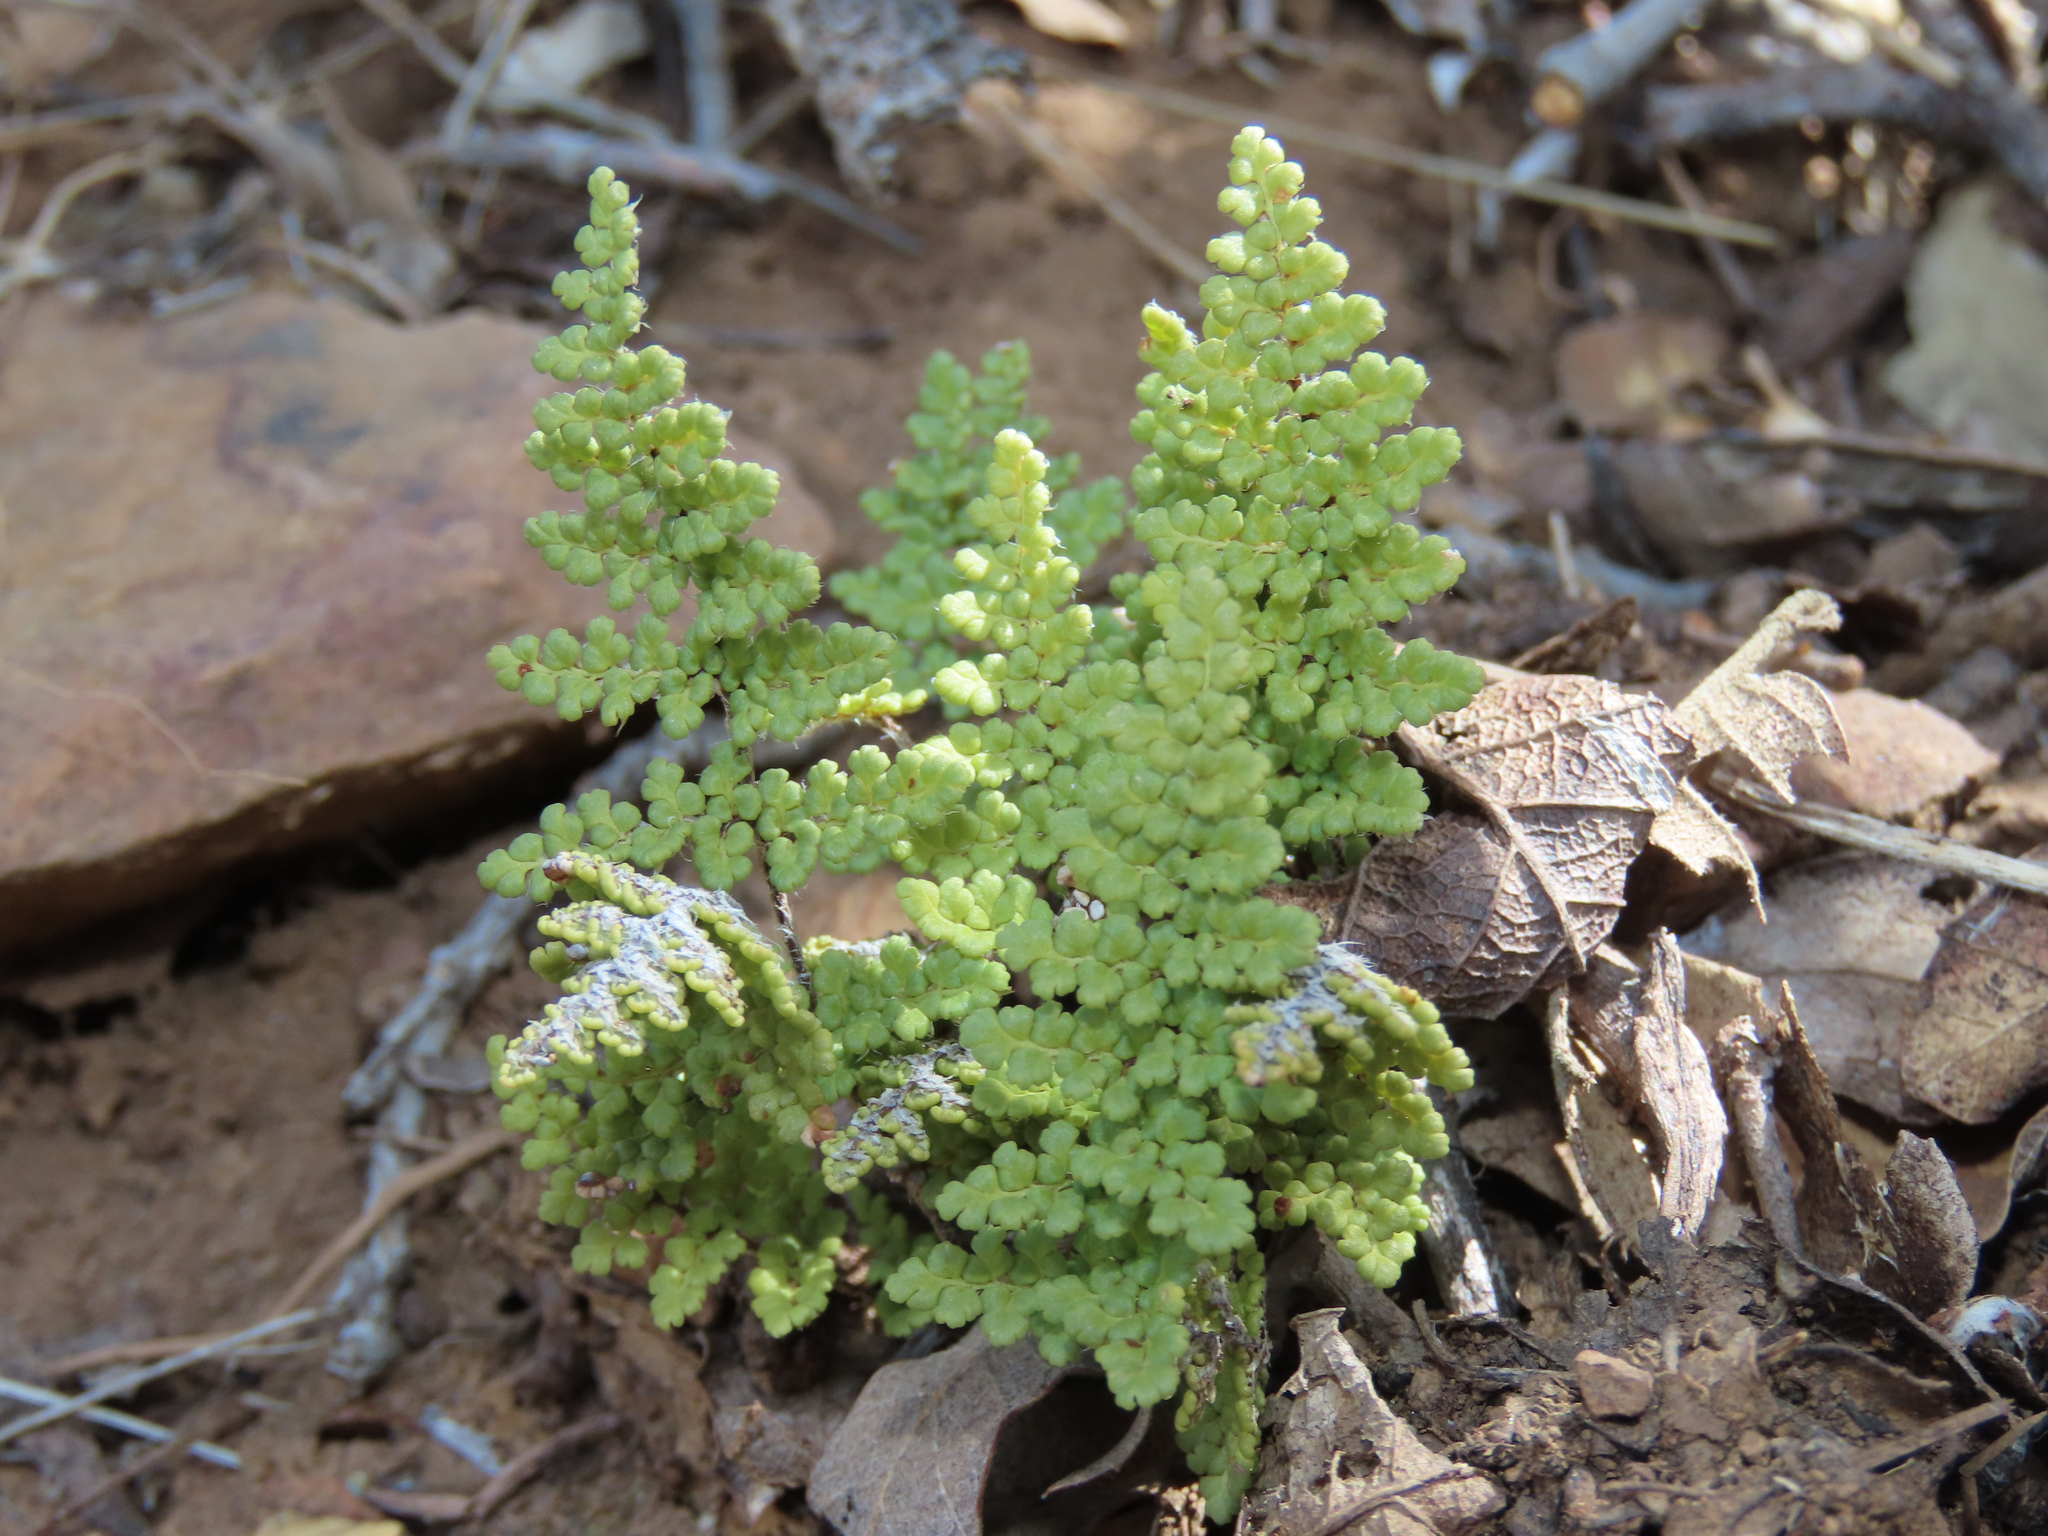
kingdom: Plantae
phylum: Tracheophyta
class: Polypodiopsida
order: Polypodiales
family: Pteridaceae
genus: Myriopteris
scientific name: Myriopteris fendleri
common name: Fendler's lip fern
